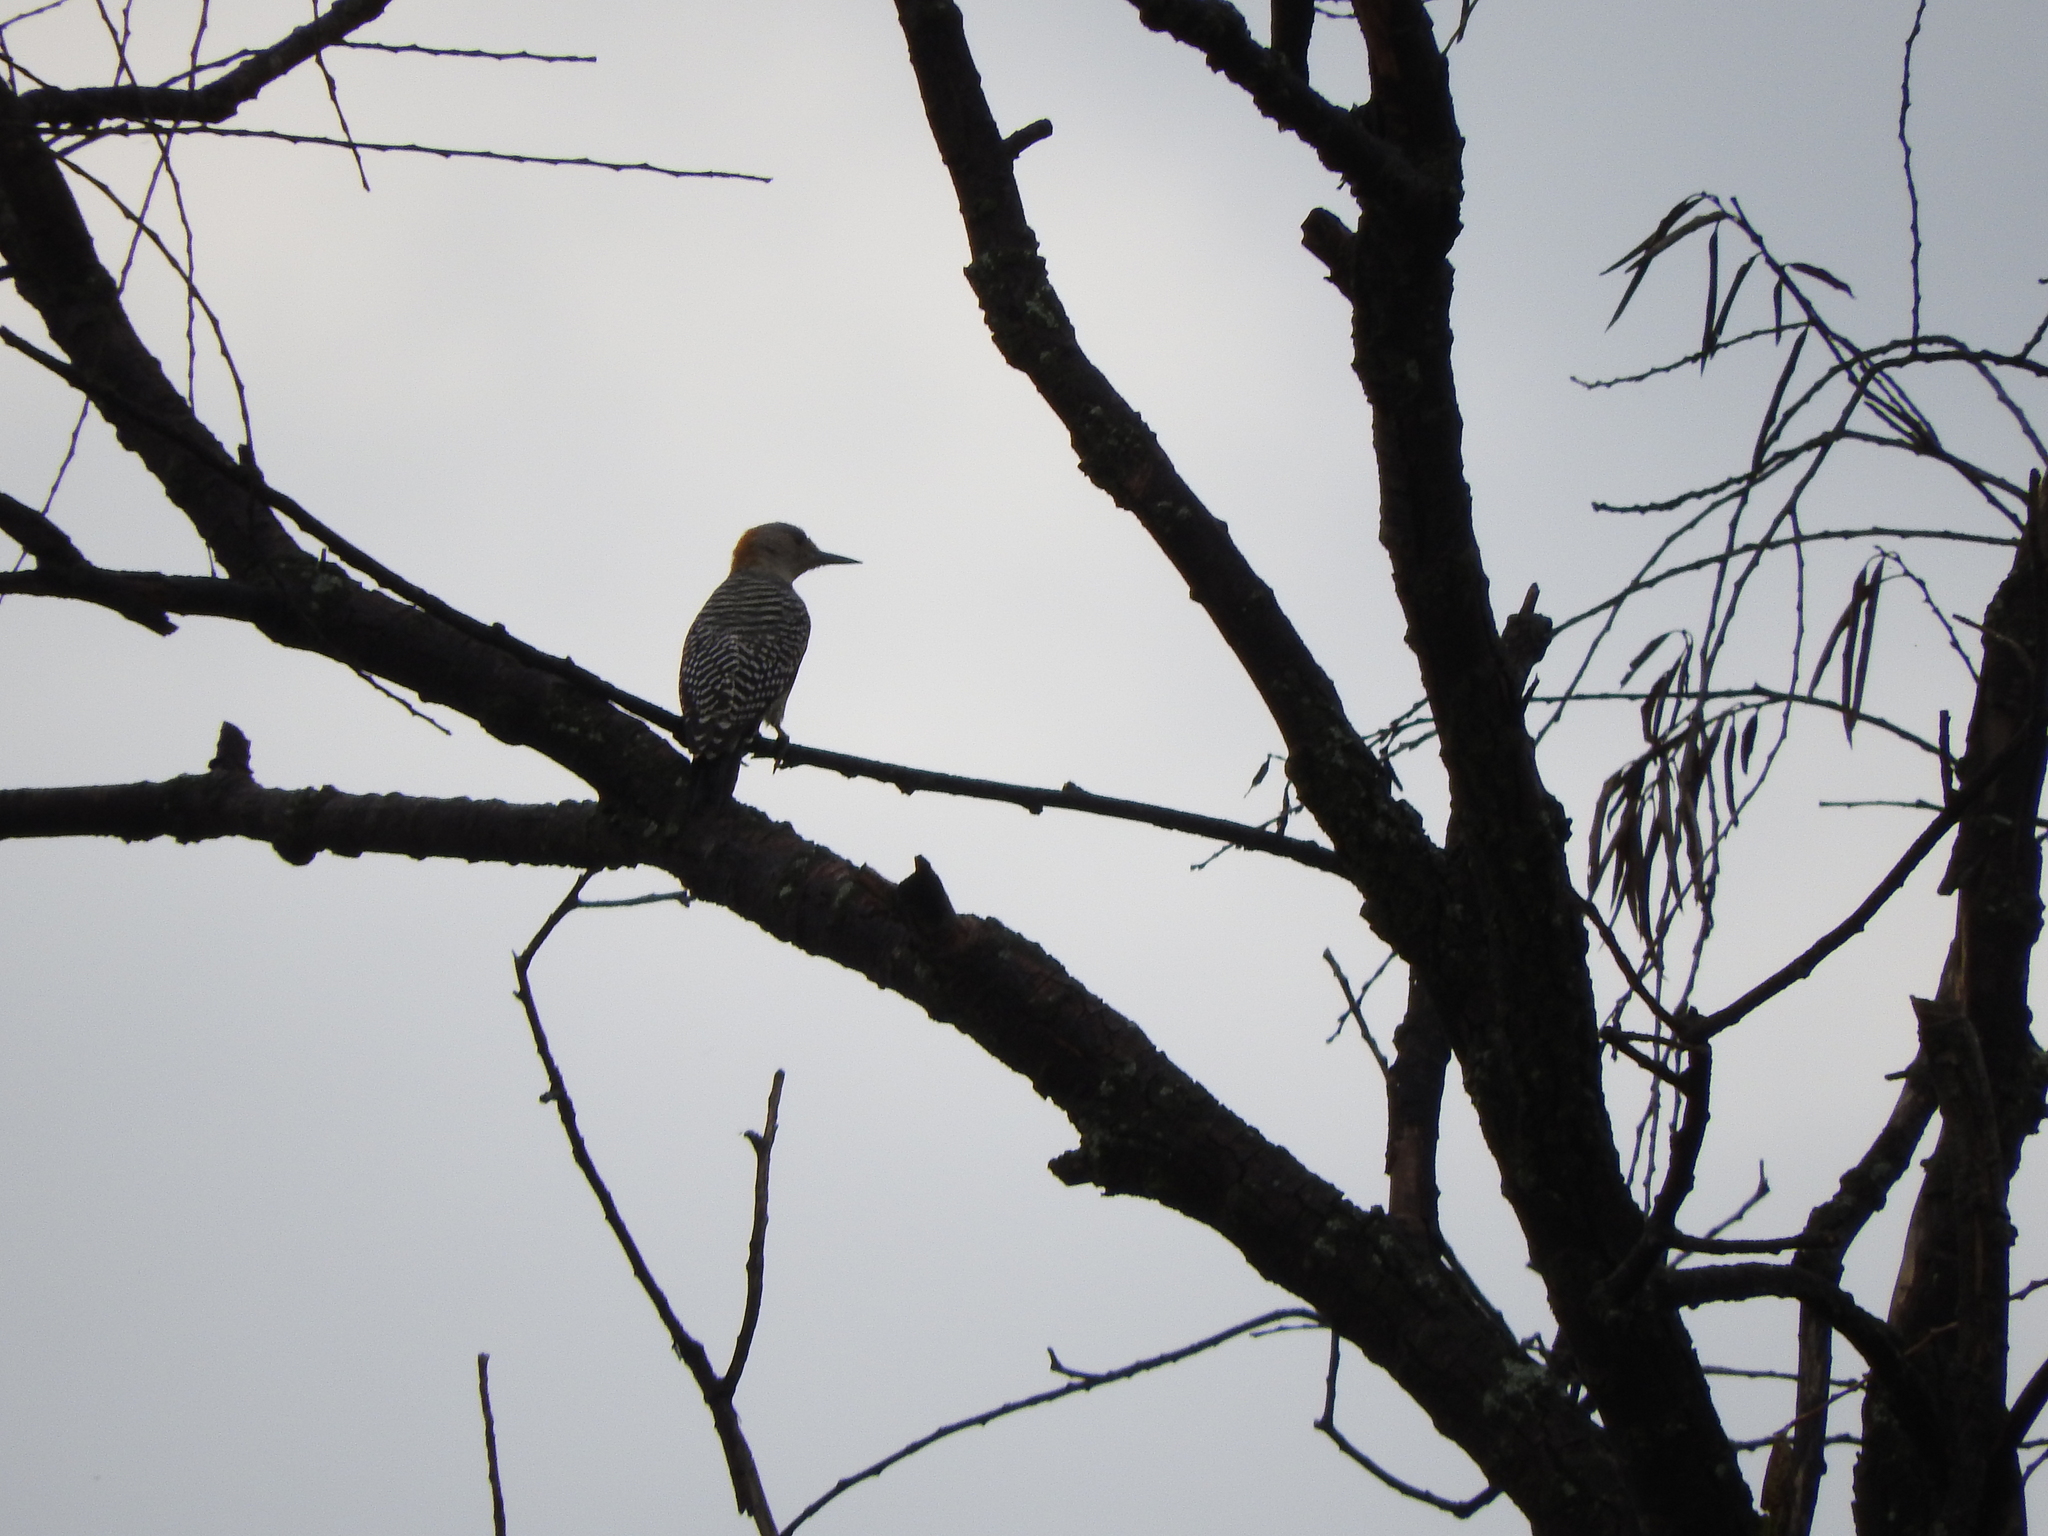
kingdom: Animalia
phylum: Chordata
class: Aves
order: Piciformes
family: Picidae
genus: Melanerpes
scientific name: Melanerpes aurifrons
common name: Golden-fronted woodpecker
